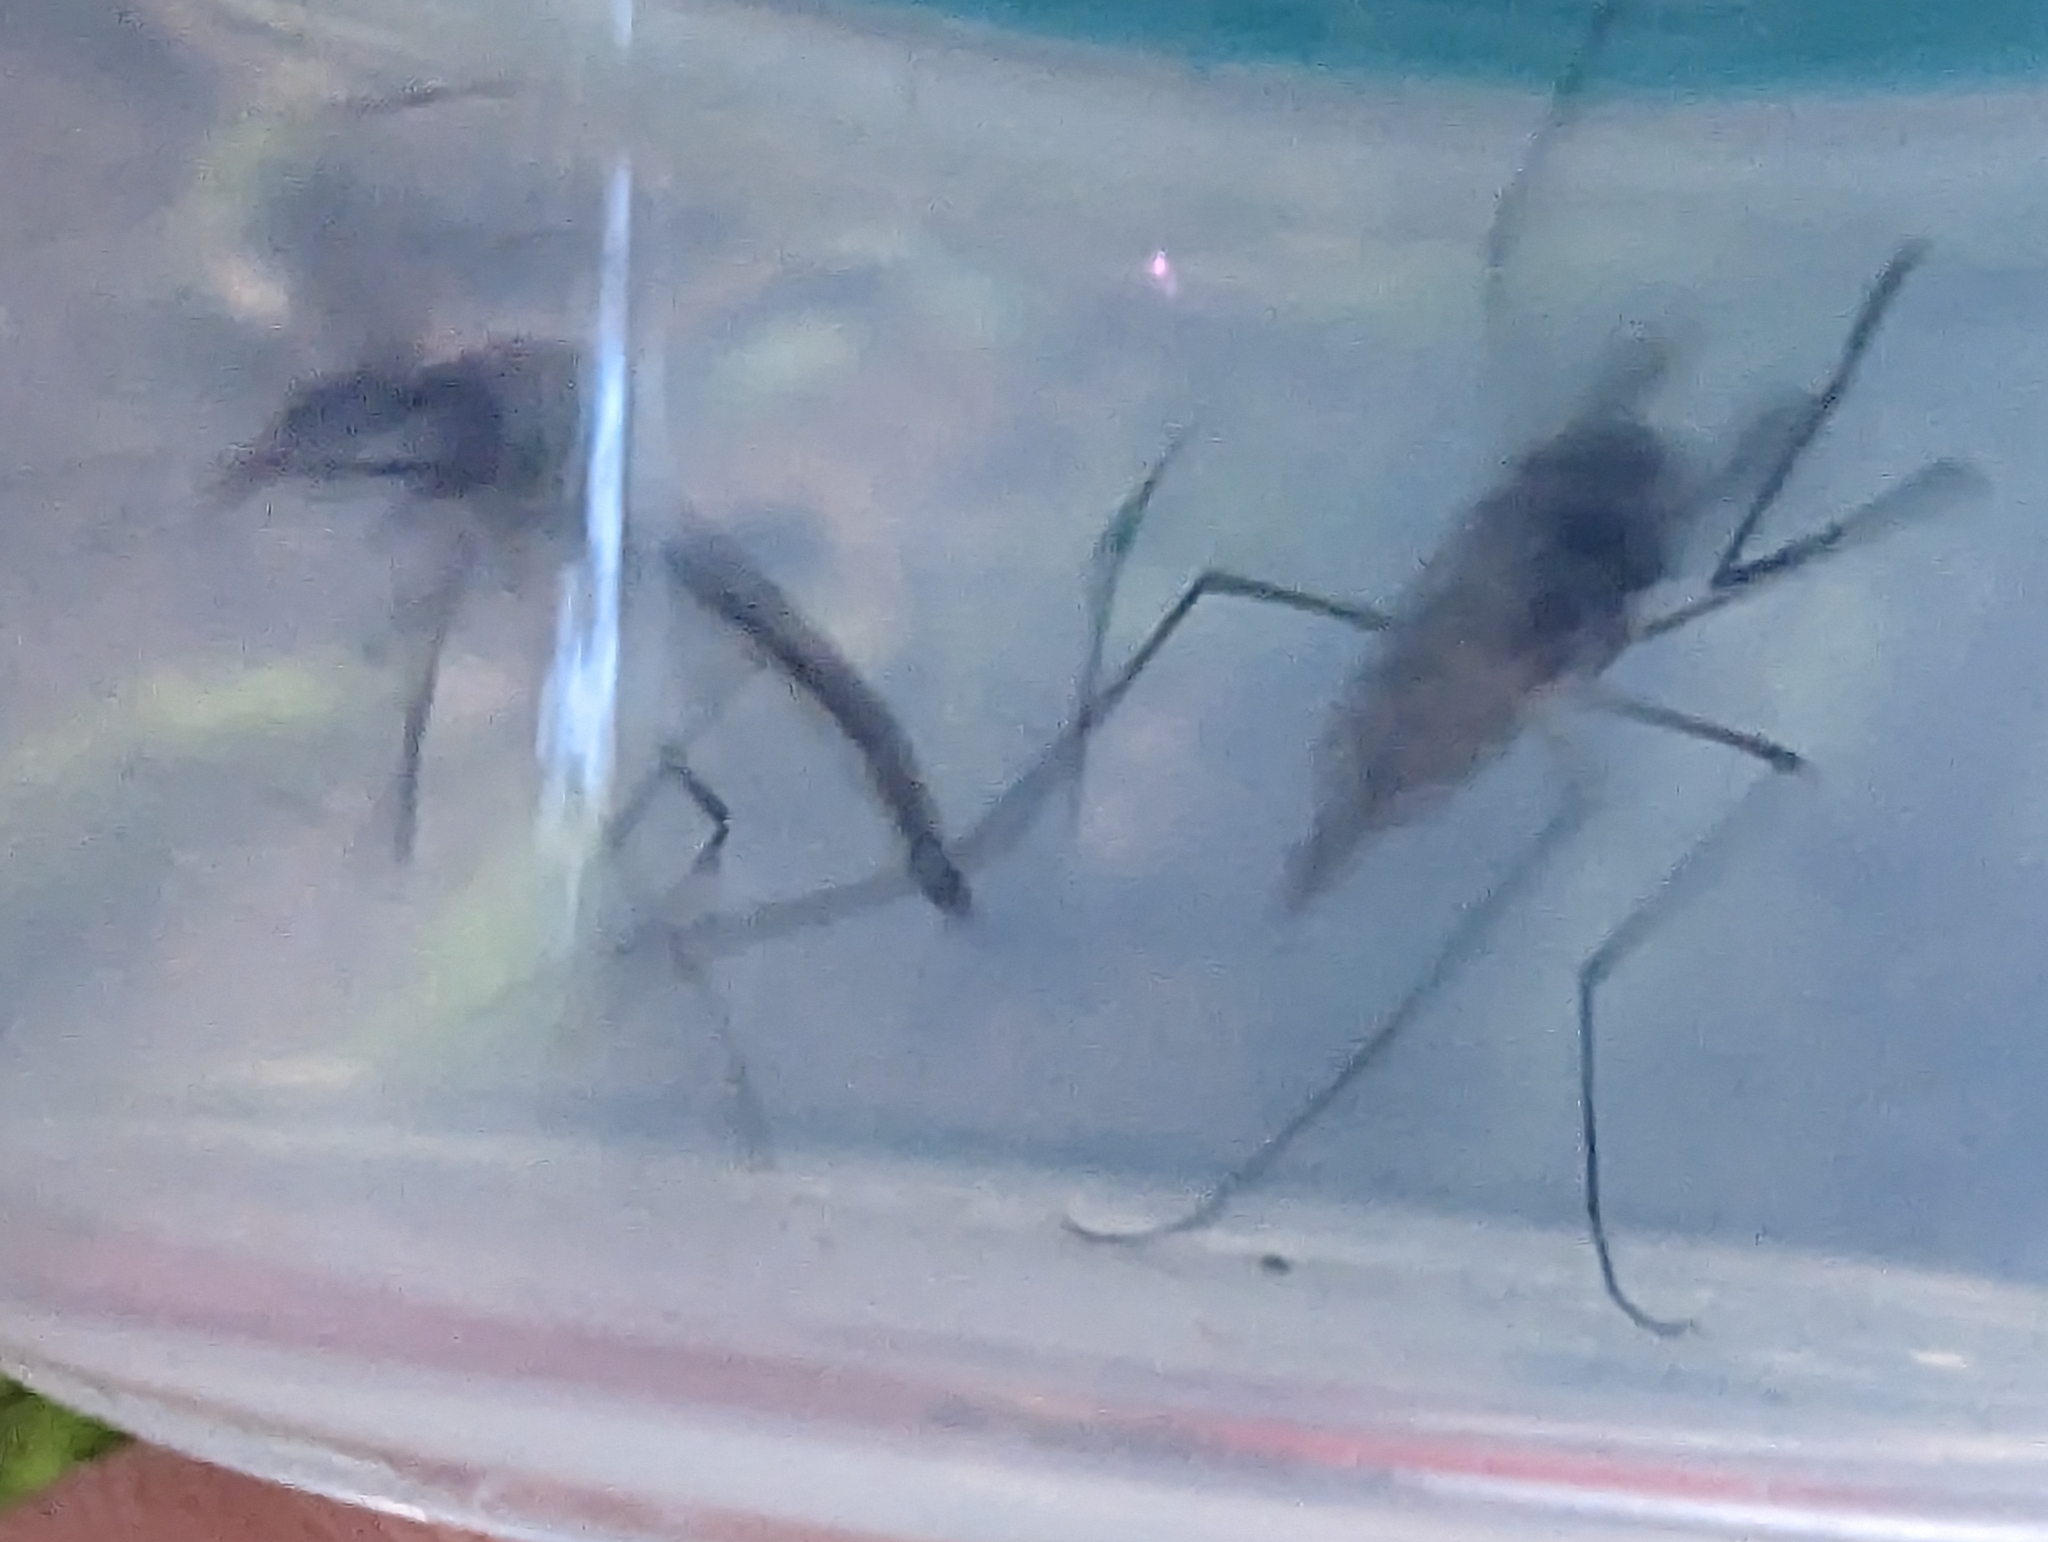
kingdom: Animalia
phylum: Arthropoda
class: Insecta
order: Diptera
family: Chaoboridae
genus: Eucorethra
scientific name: Eucorethra underwoodi
